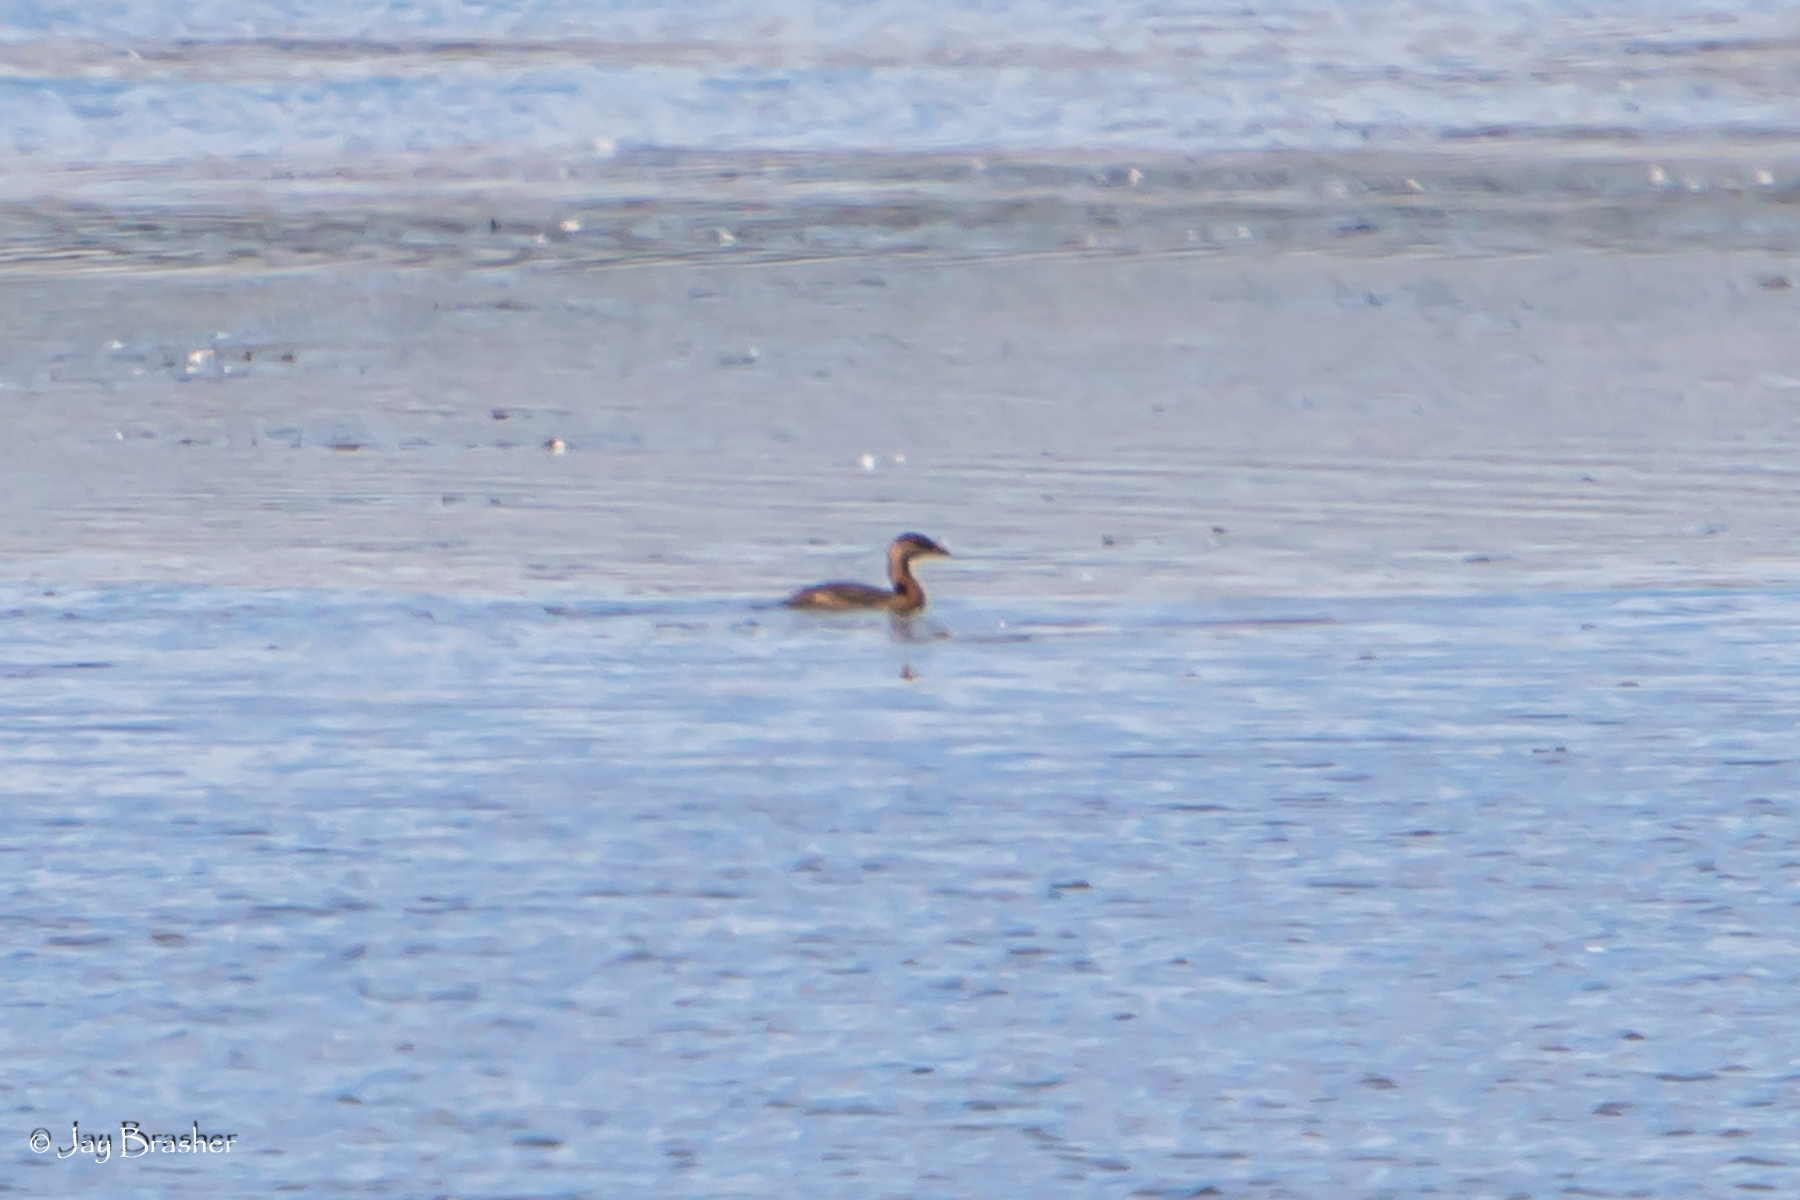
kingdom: Animalia
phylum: Chordata
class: Aves
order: Podicipediformes
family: Podicipedidae
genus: Podilymbus
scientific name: Podilymbus podiceps
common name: Pied-billed grebe
